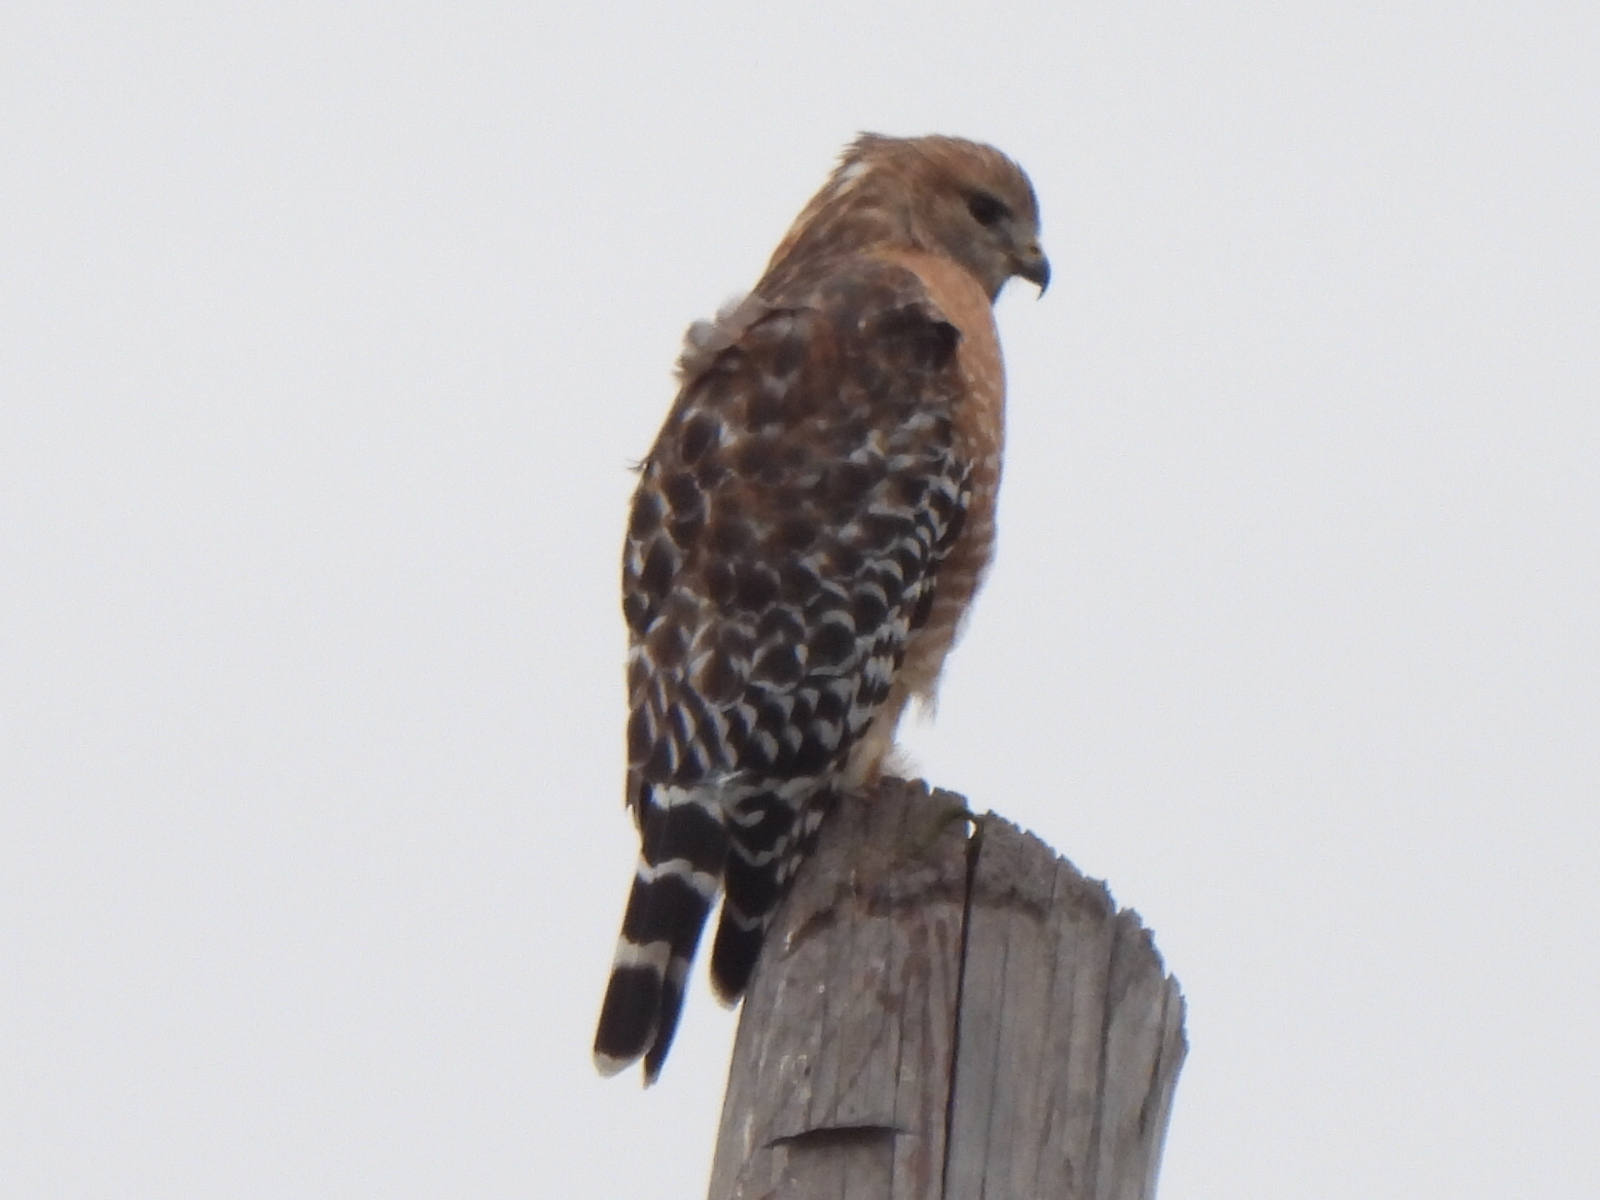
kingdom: Animalia
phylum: Chordata
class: Aves
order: Accipitriformes
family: Accipitridae
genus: Buteo
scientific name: Buteo lineatus
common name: Red-shouldered hawk
